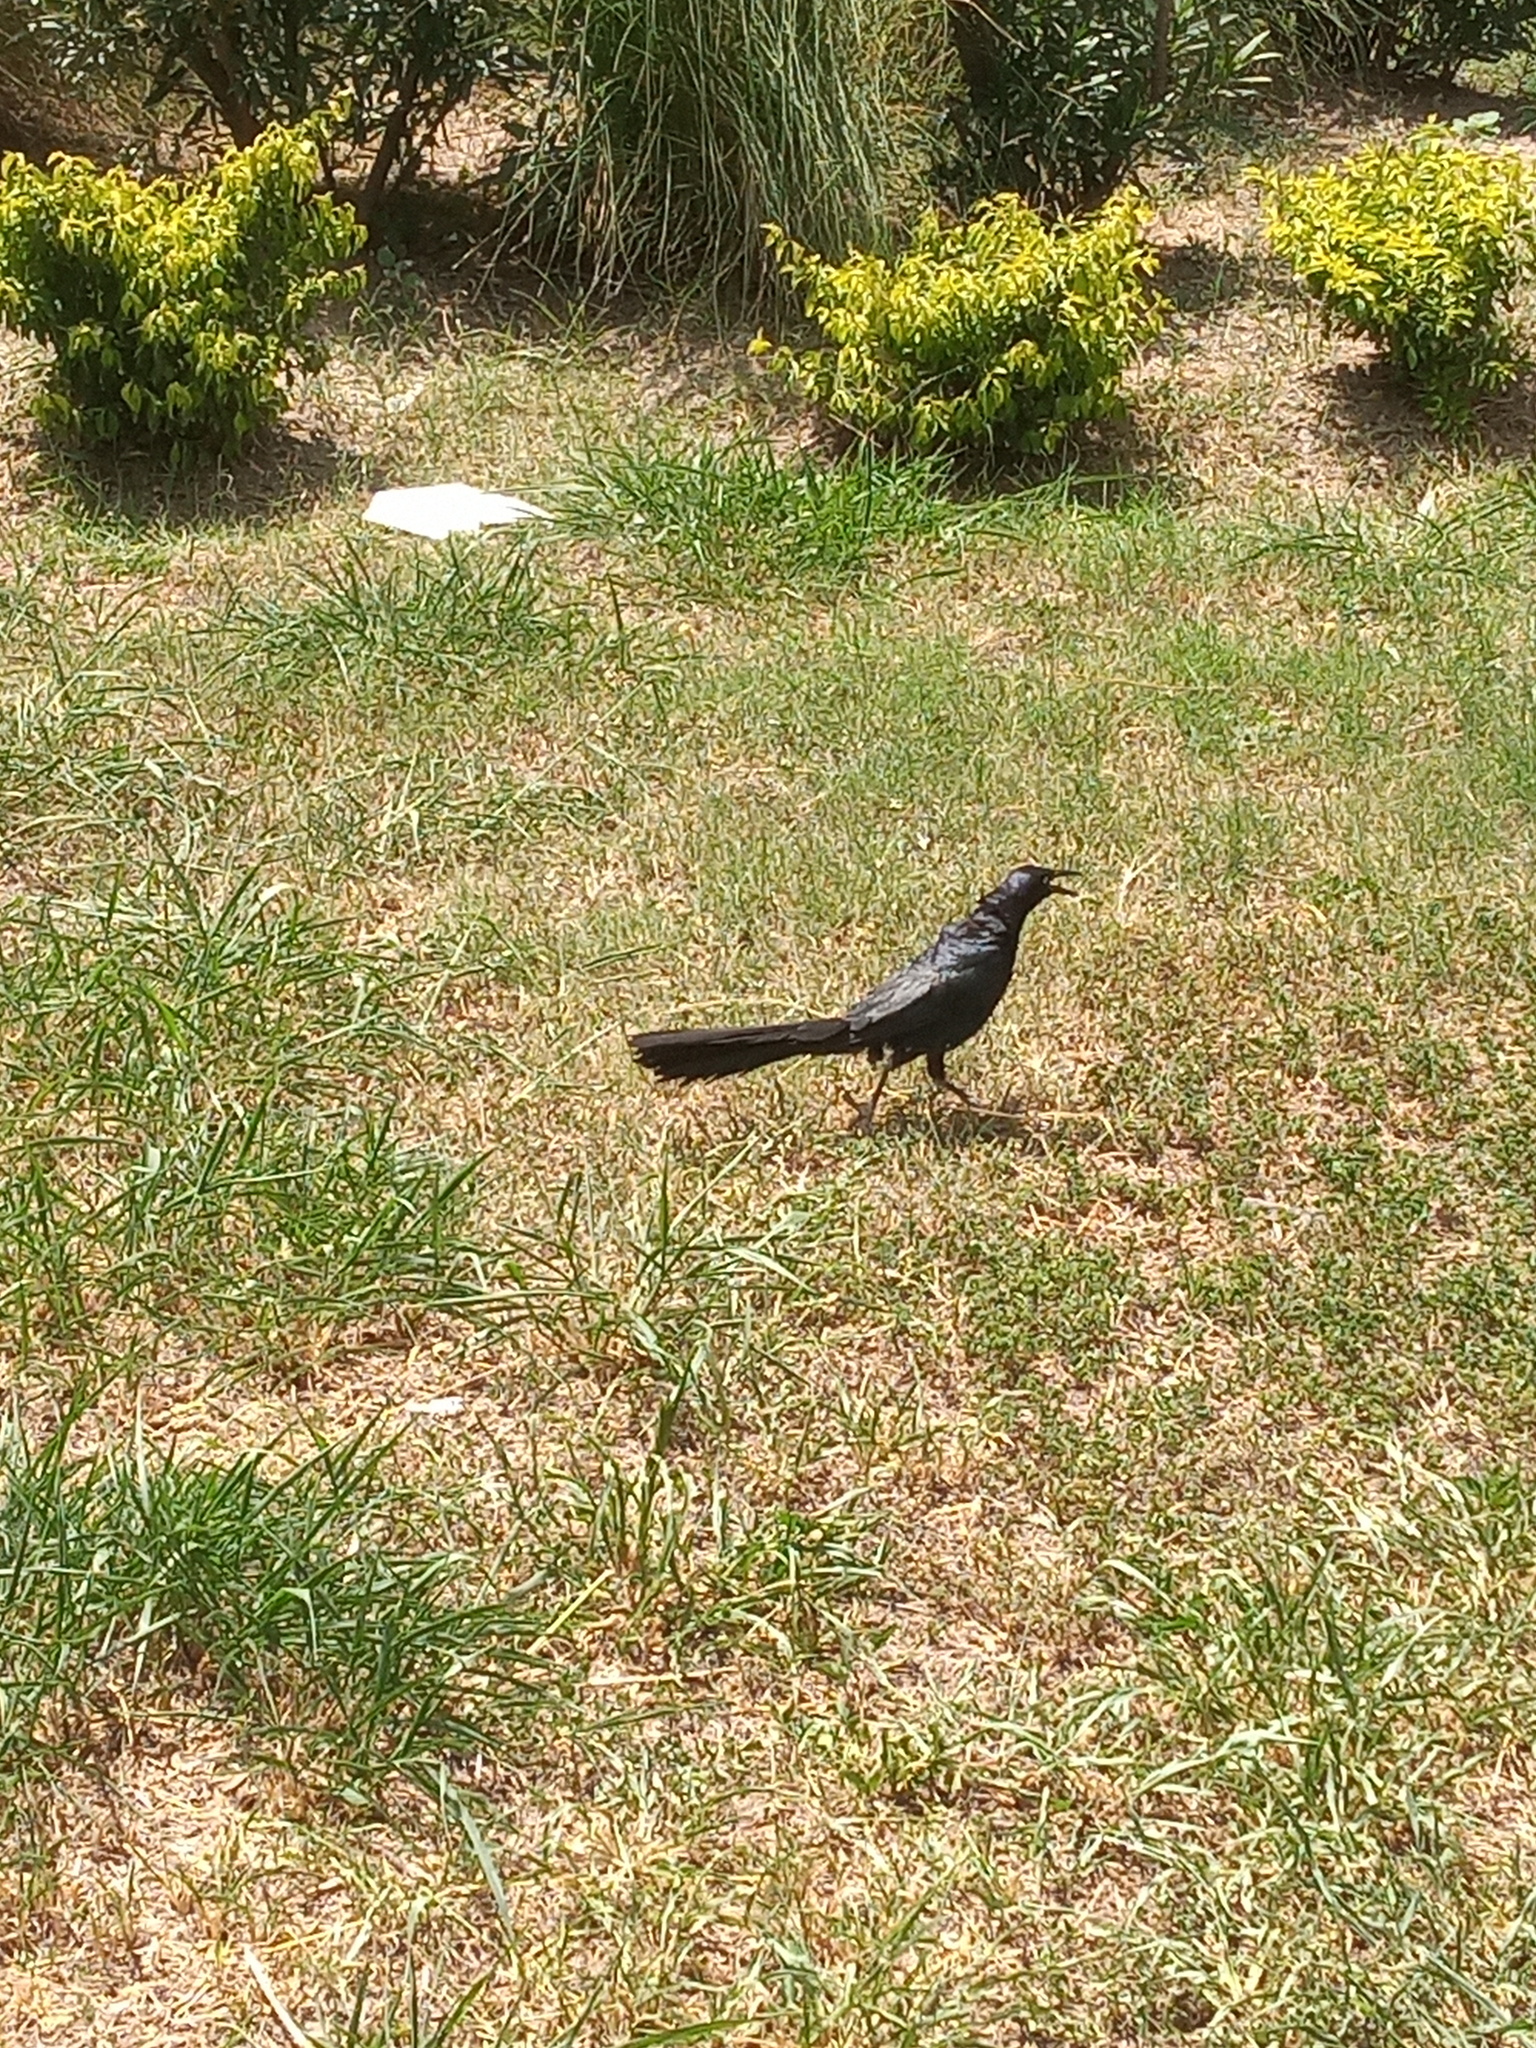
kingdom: Animalia
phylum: Chordata
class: Aves
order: Passeriformes
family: Icteridae
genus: Quiscalus
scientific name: Quiscalus mexicanus
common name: Great-tailed grackle
